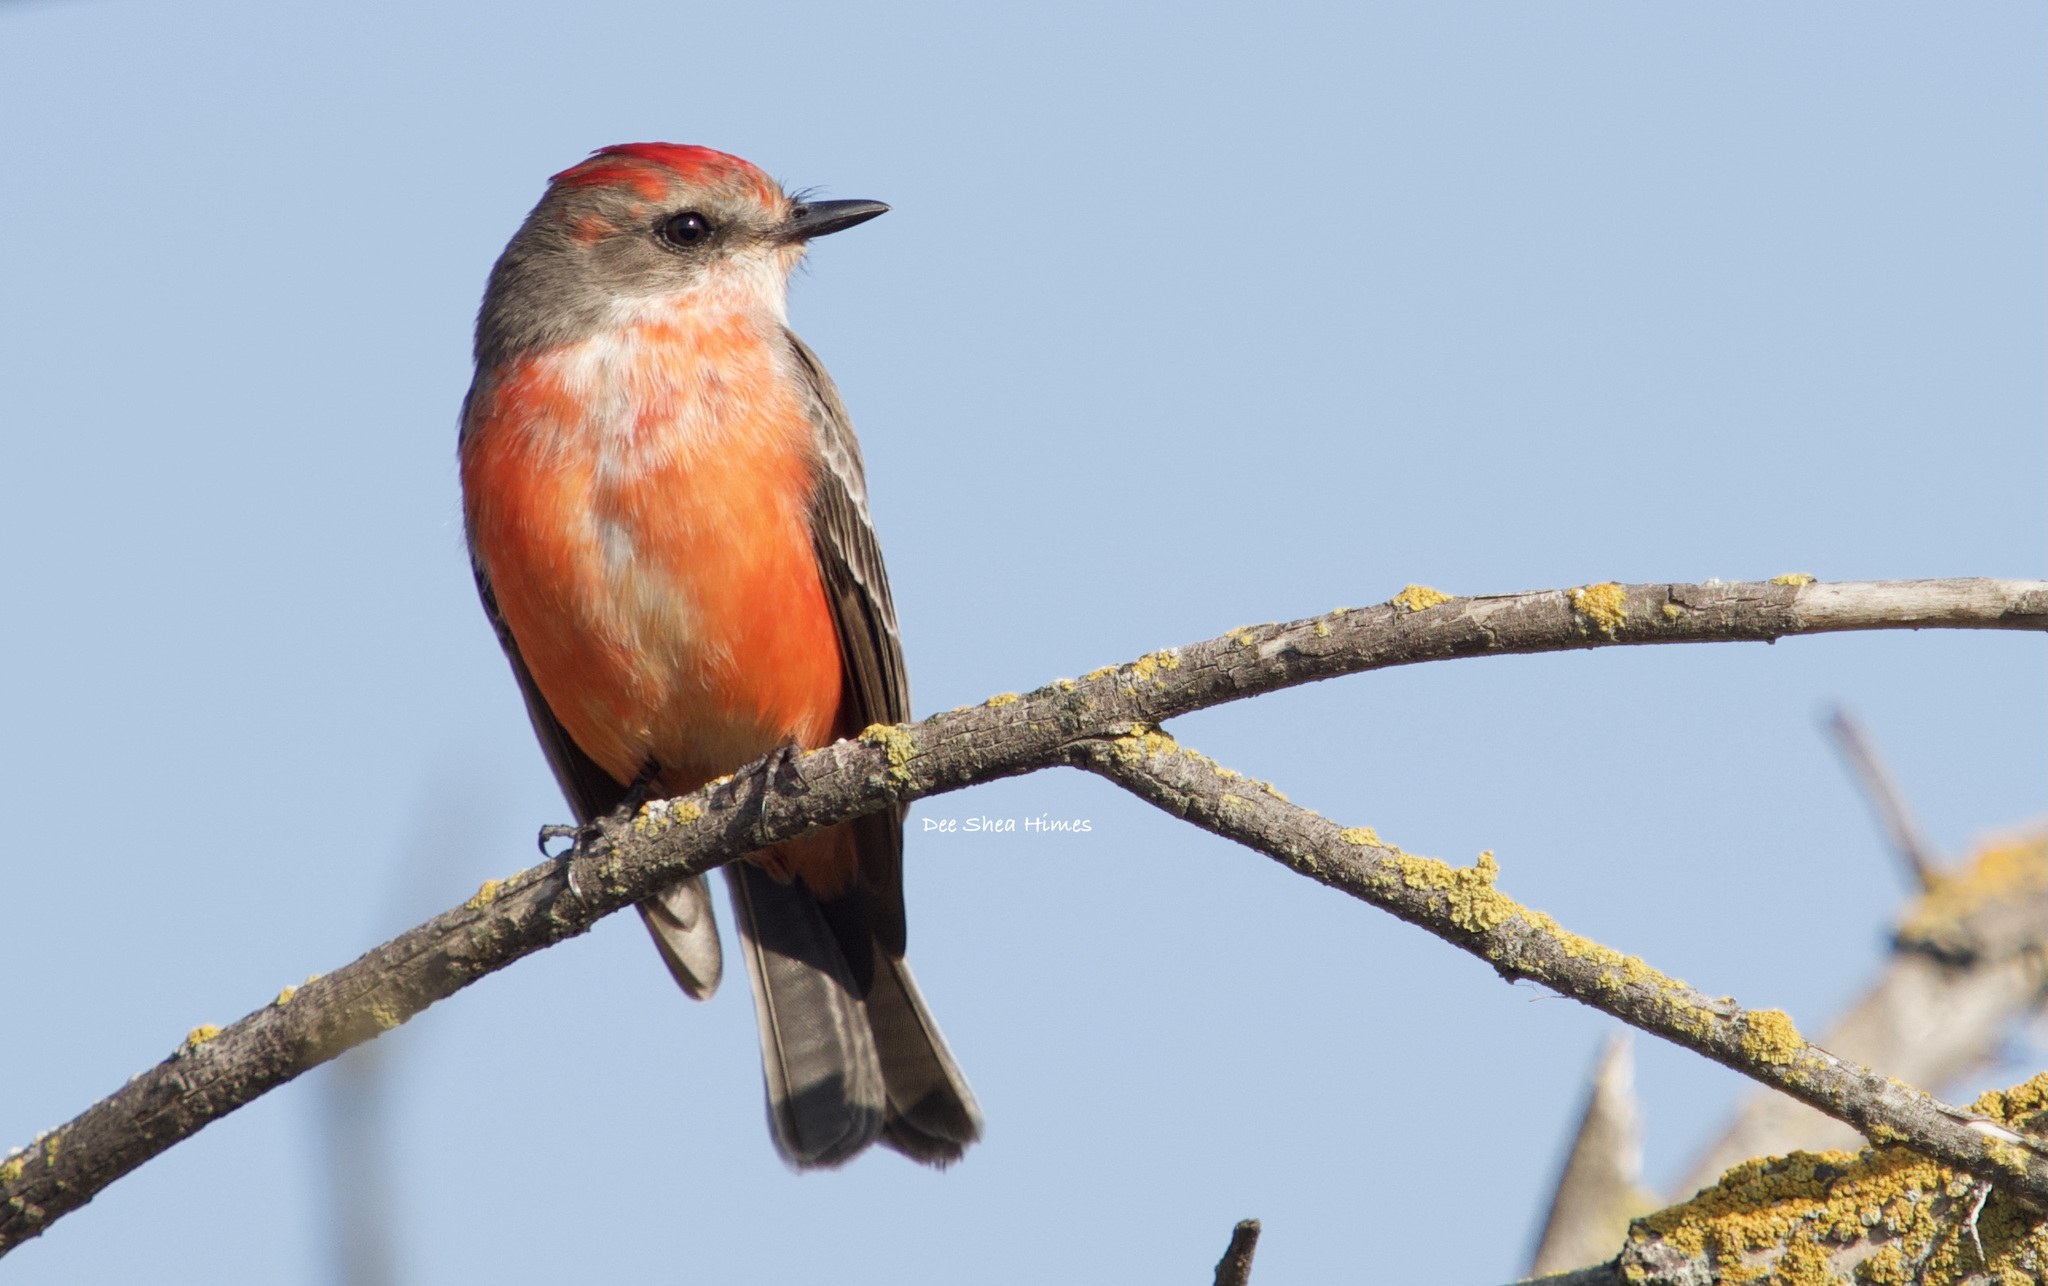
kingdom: Animalia
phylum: Chordata
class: Aves
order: Passeriformes
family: Tyrannidae
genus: Pyrocephalus
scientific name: Pyrocephalus rubinus
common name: Vermilion flycatcher
